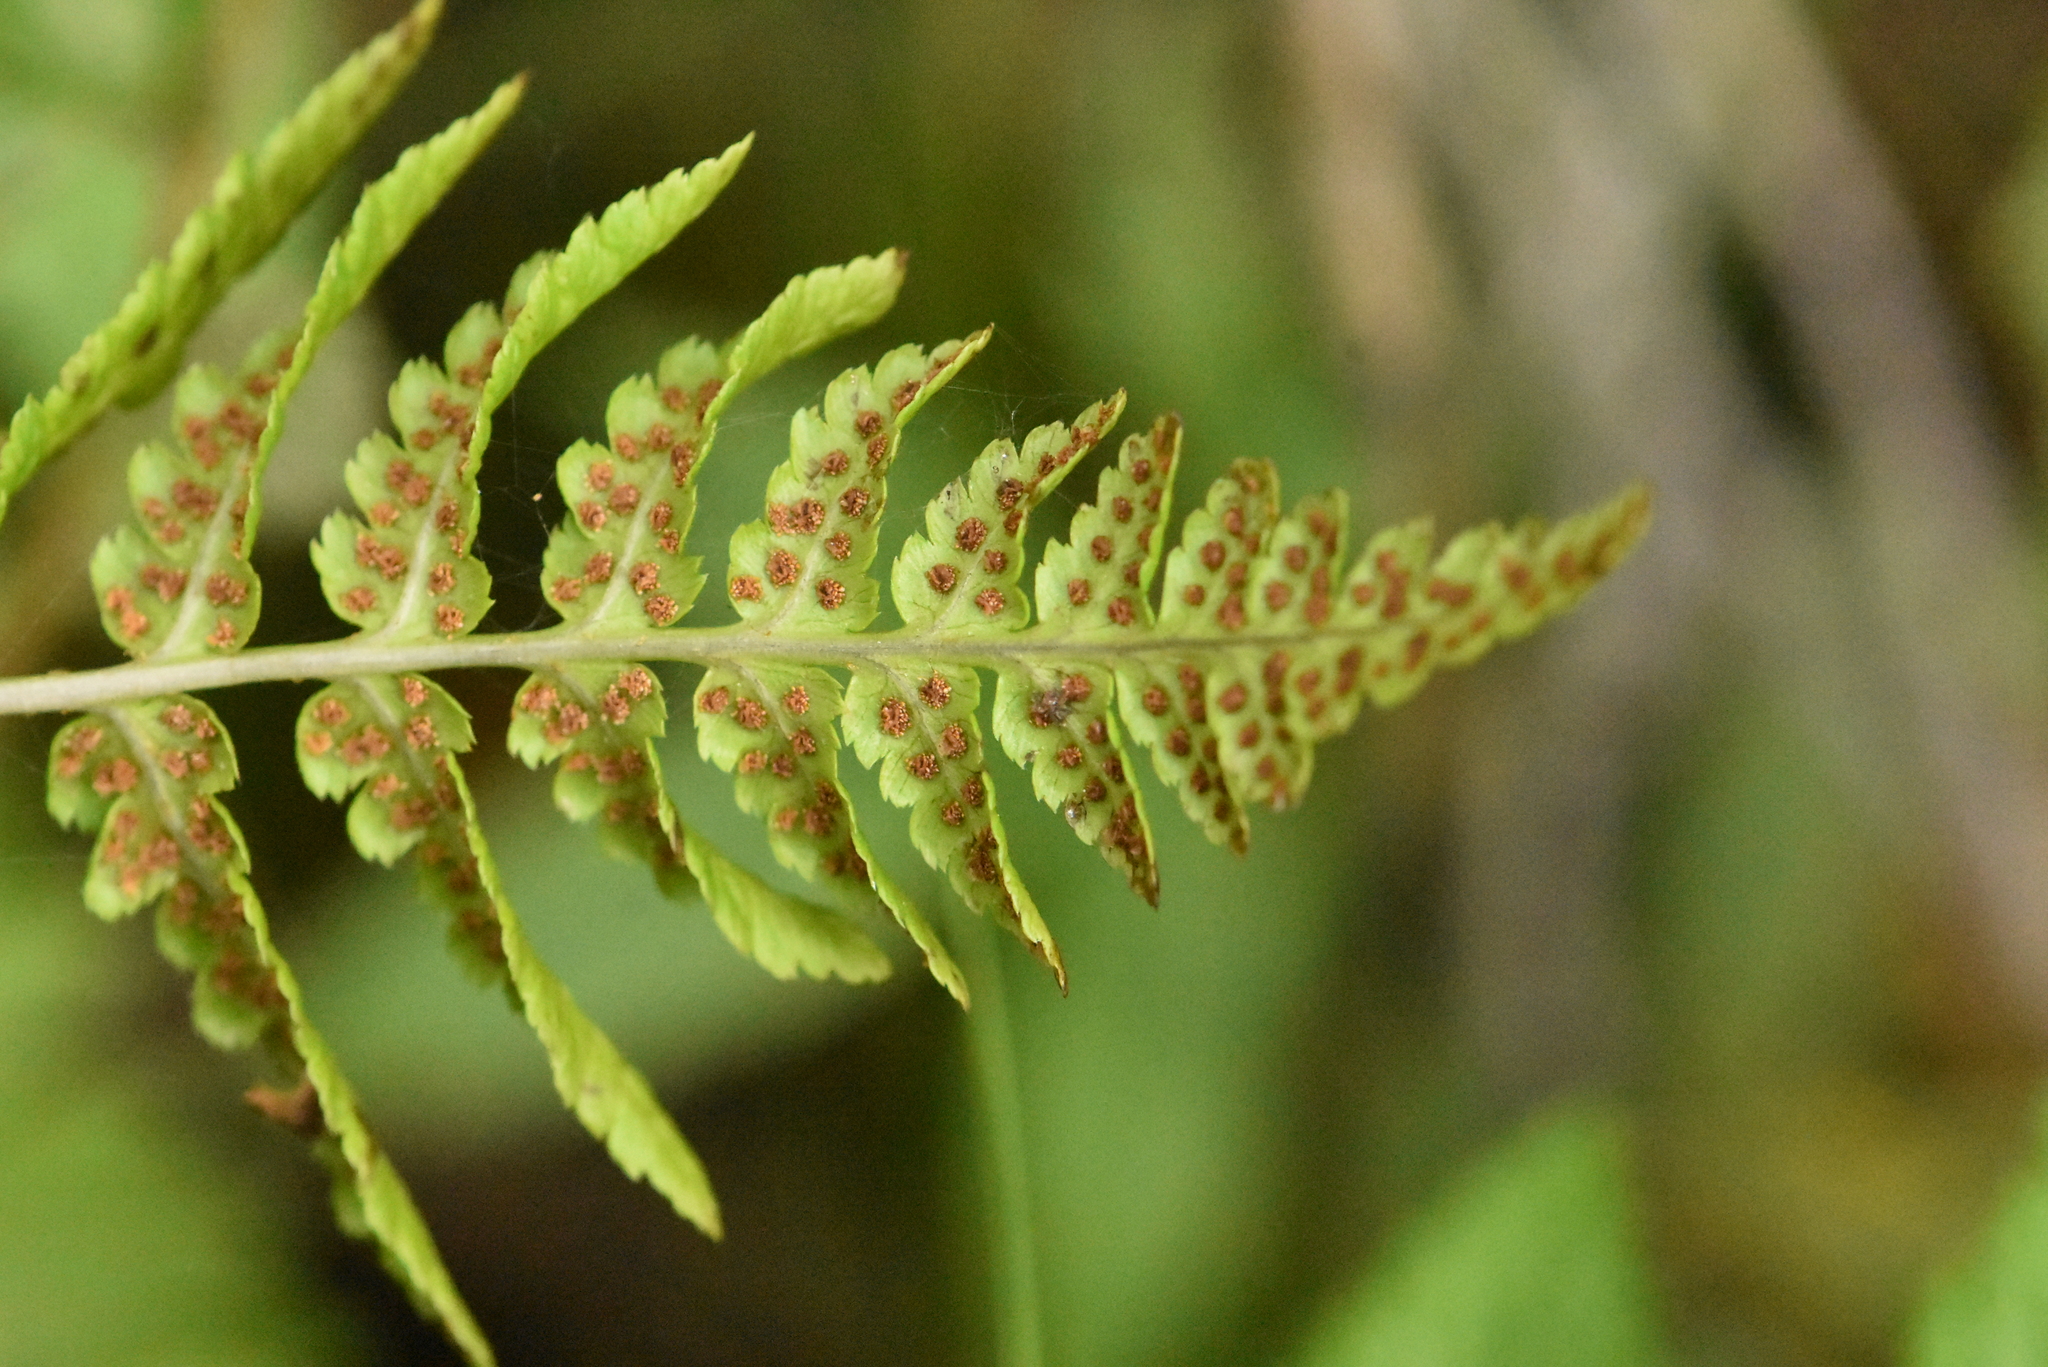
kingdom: Plantae
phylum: Tracheophyta
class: Polypodiopsida
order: Polypodiales
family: Dryopteridaceae
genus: Dryopteris
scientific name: Dryopteris cristata
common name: Crested wood fern
